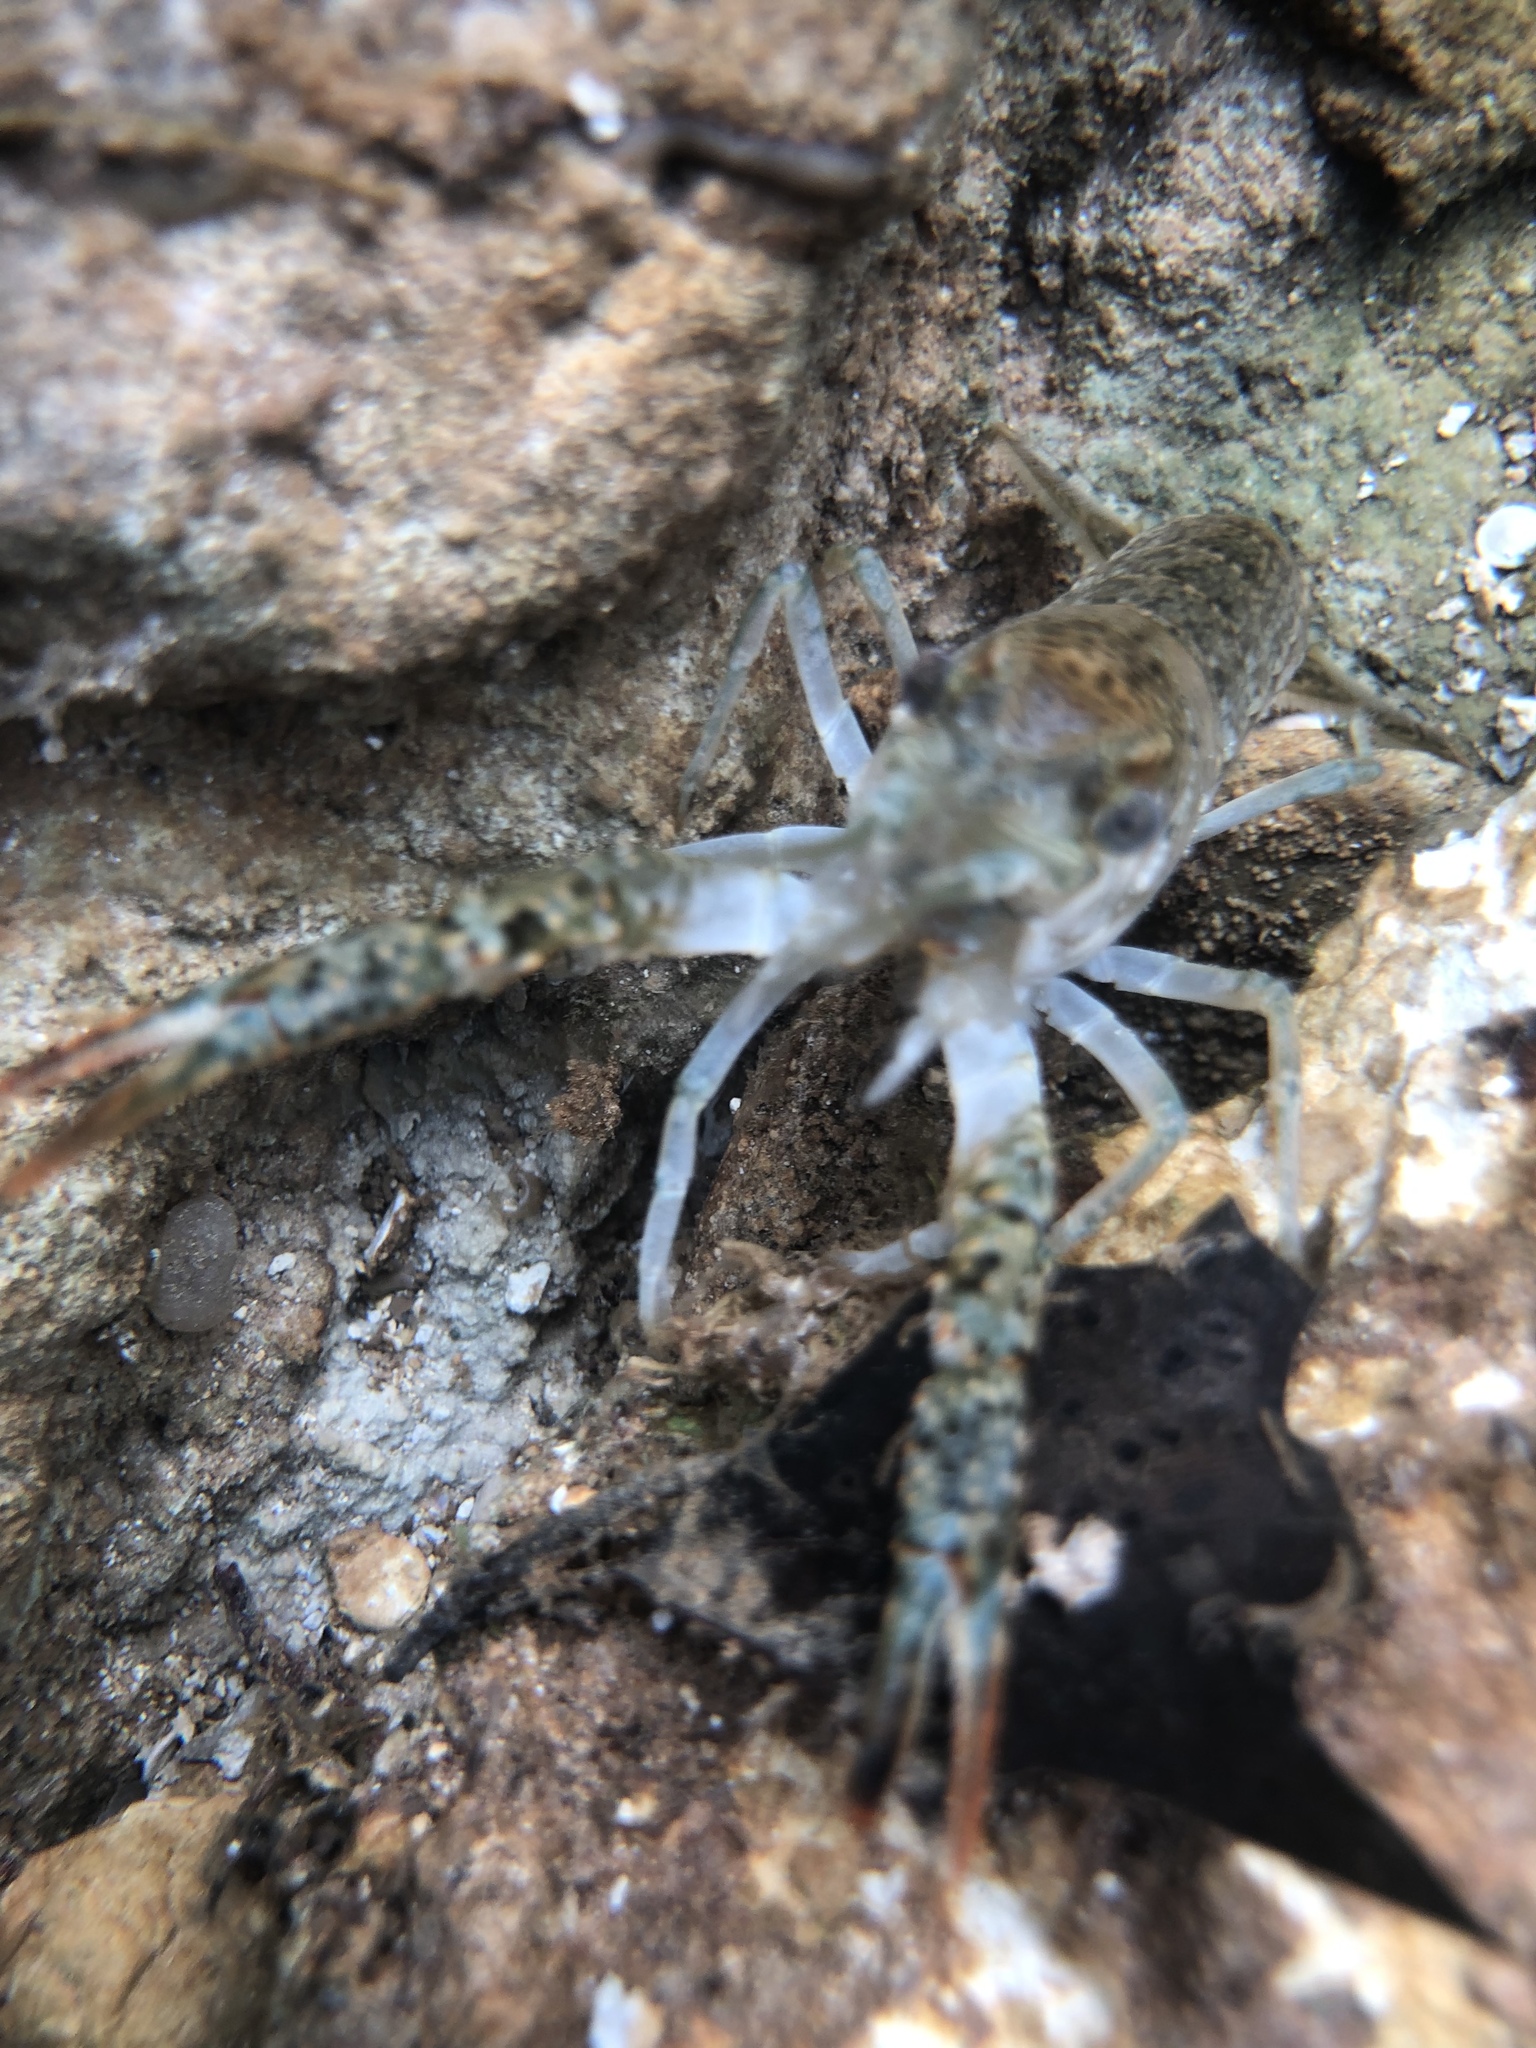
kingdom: Animalia
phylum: Arthropoda
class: Malacostraca
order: Decapoda
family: Cambaridae
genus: Procambarus
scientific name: Procambarus clarkii
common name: Red swamp crayfish
